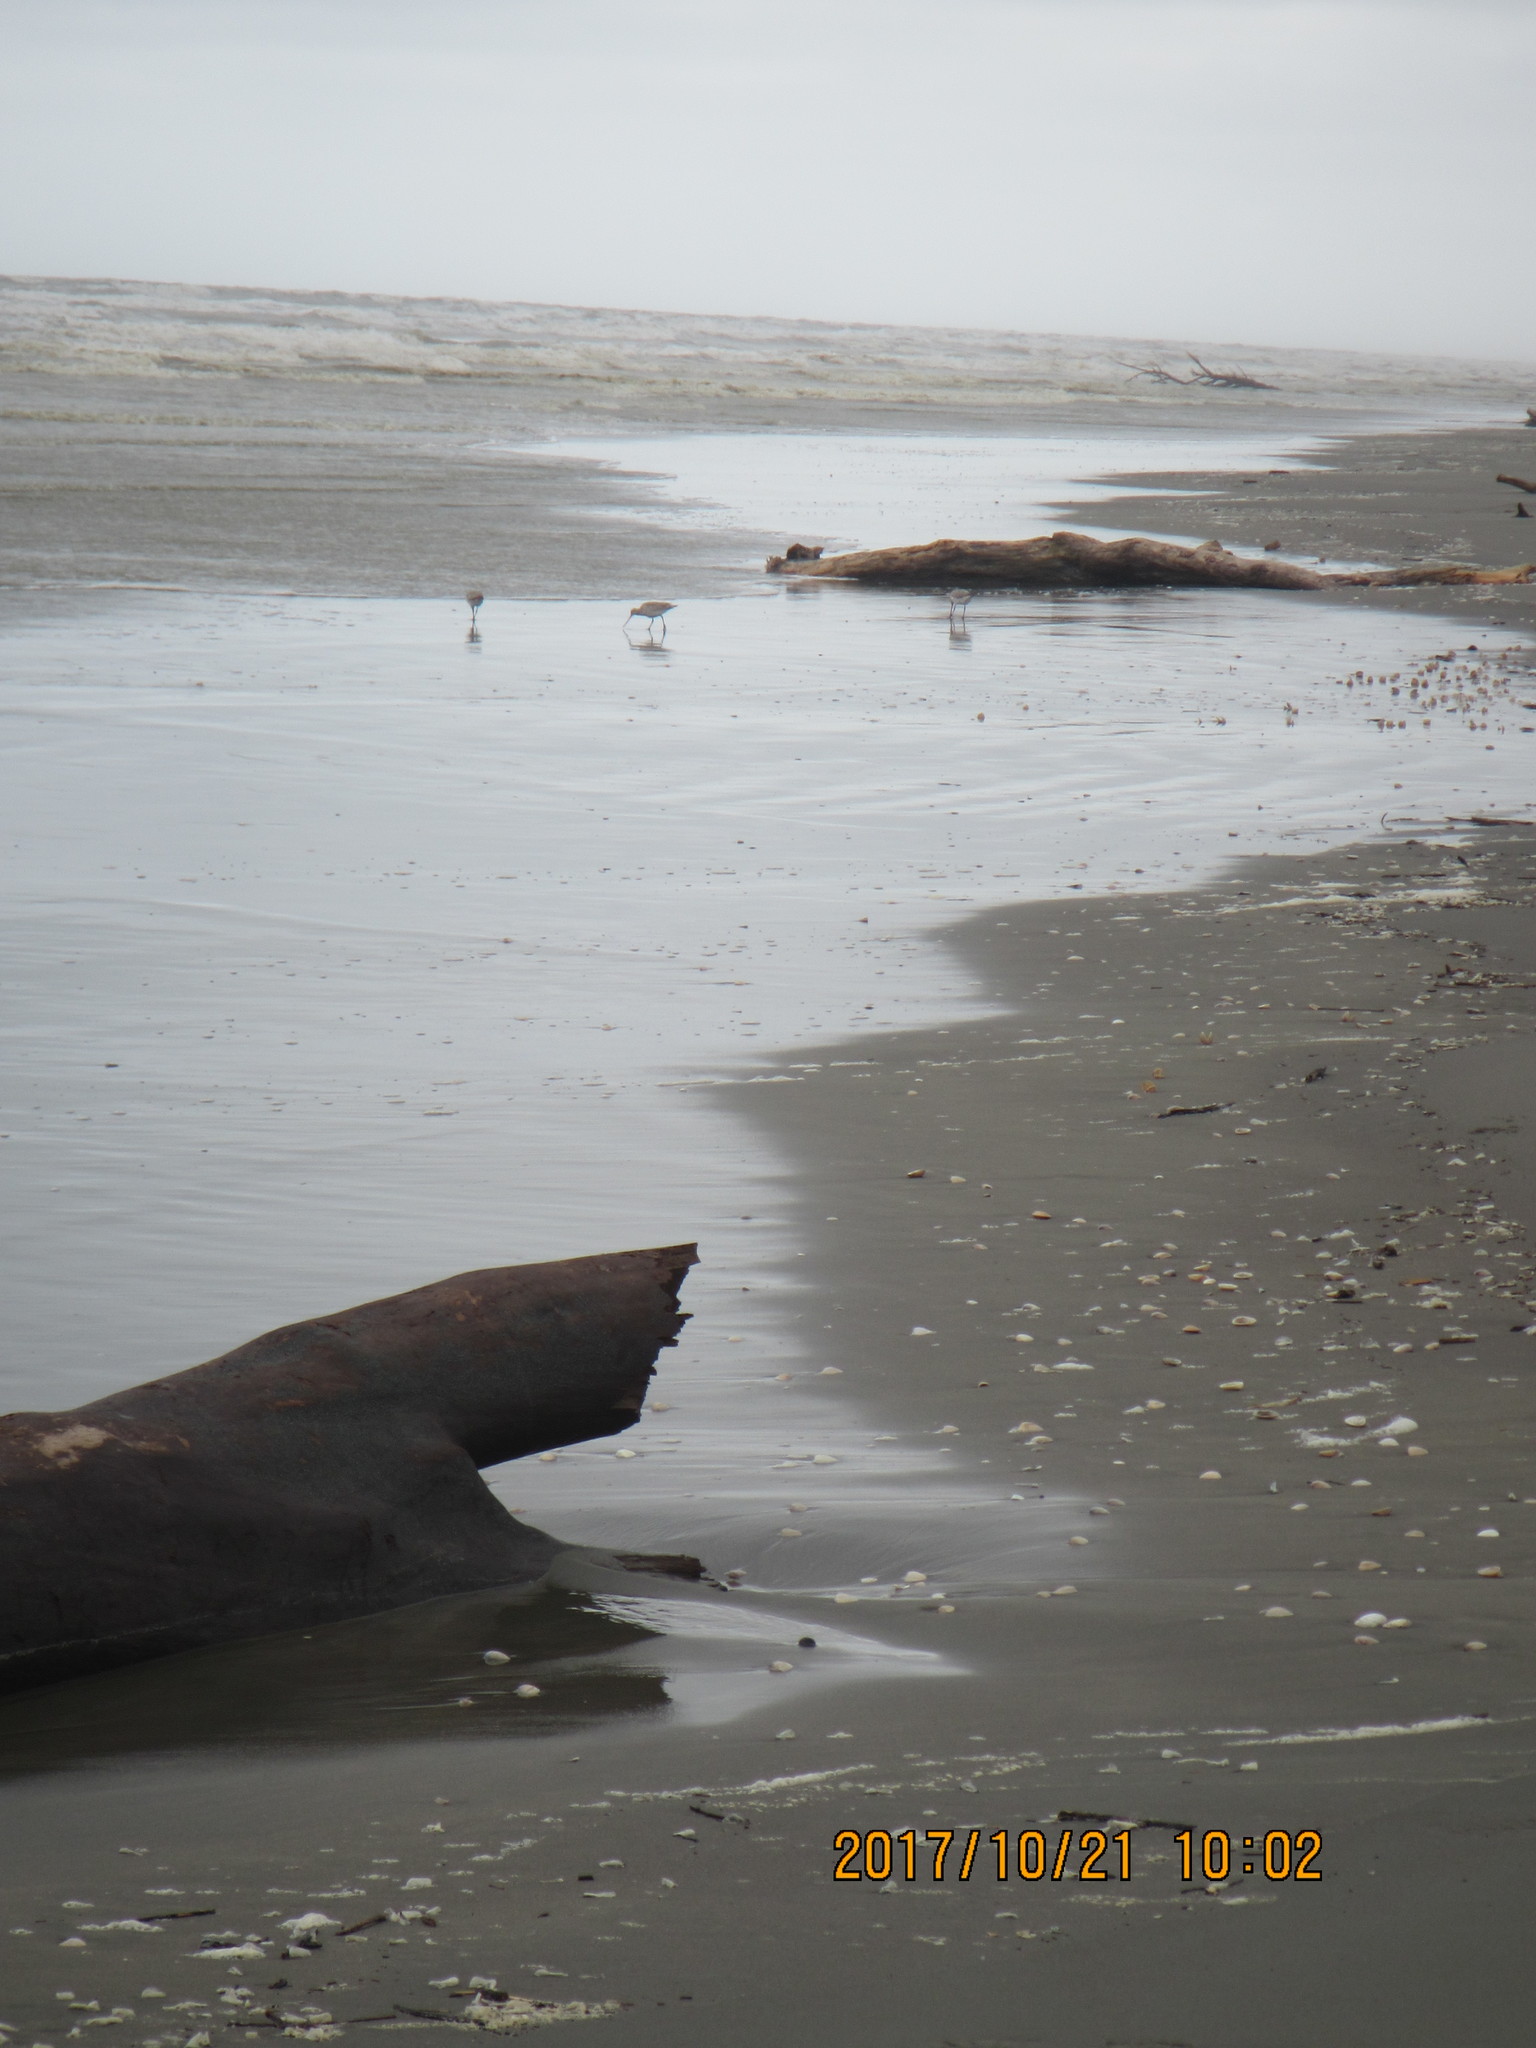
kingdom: Animalia
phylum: Chordata
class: Aves
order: Charadriiformes
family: Scolopacidae
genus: Limosa
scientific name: Limosa lapponica
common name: Bar-tailed godwit
